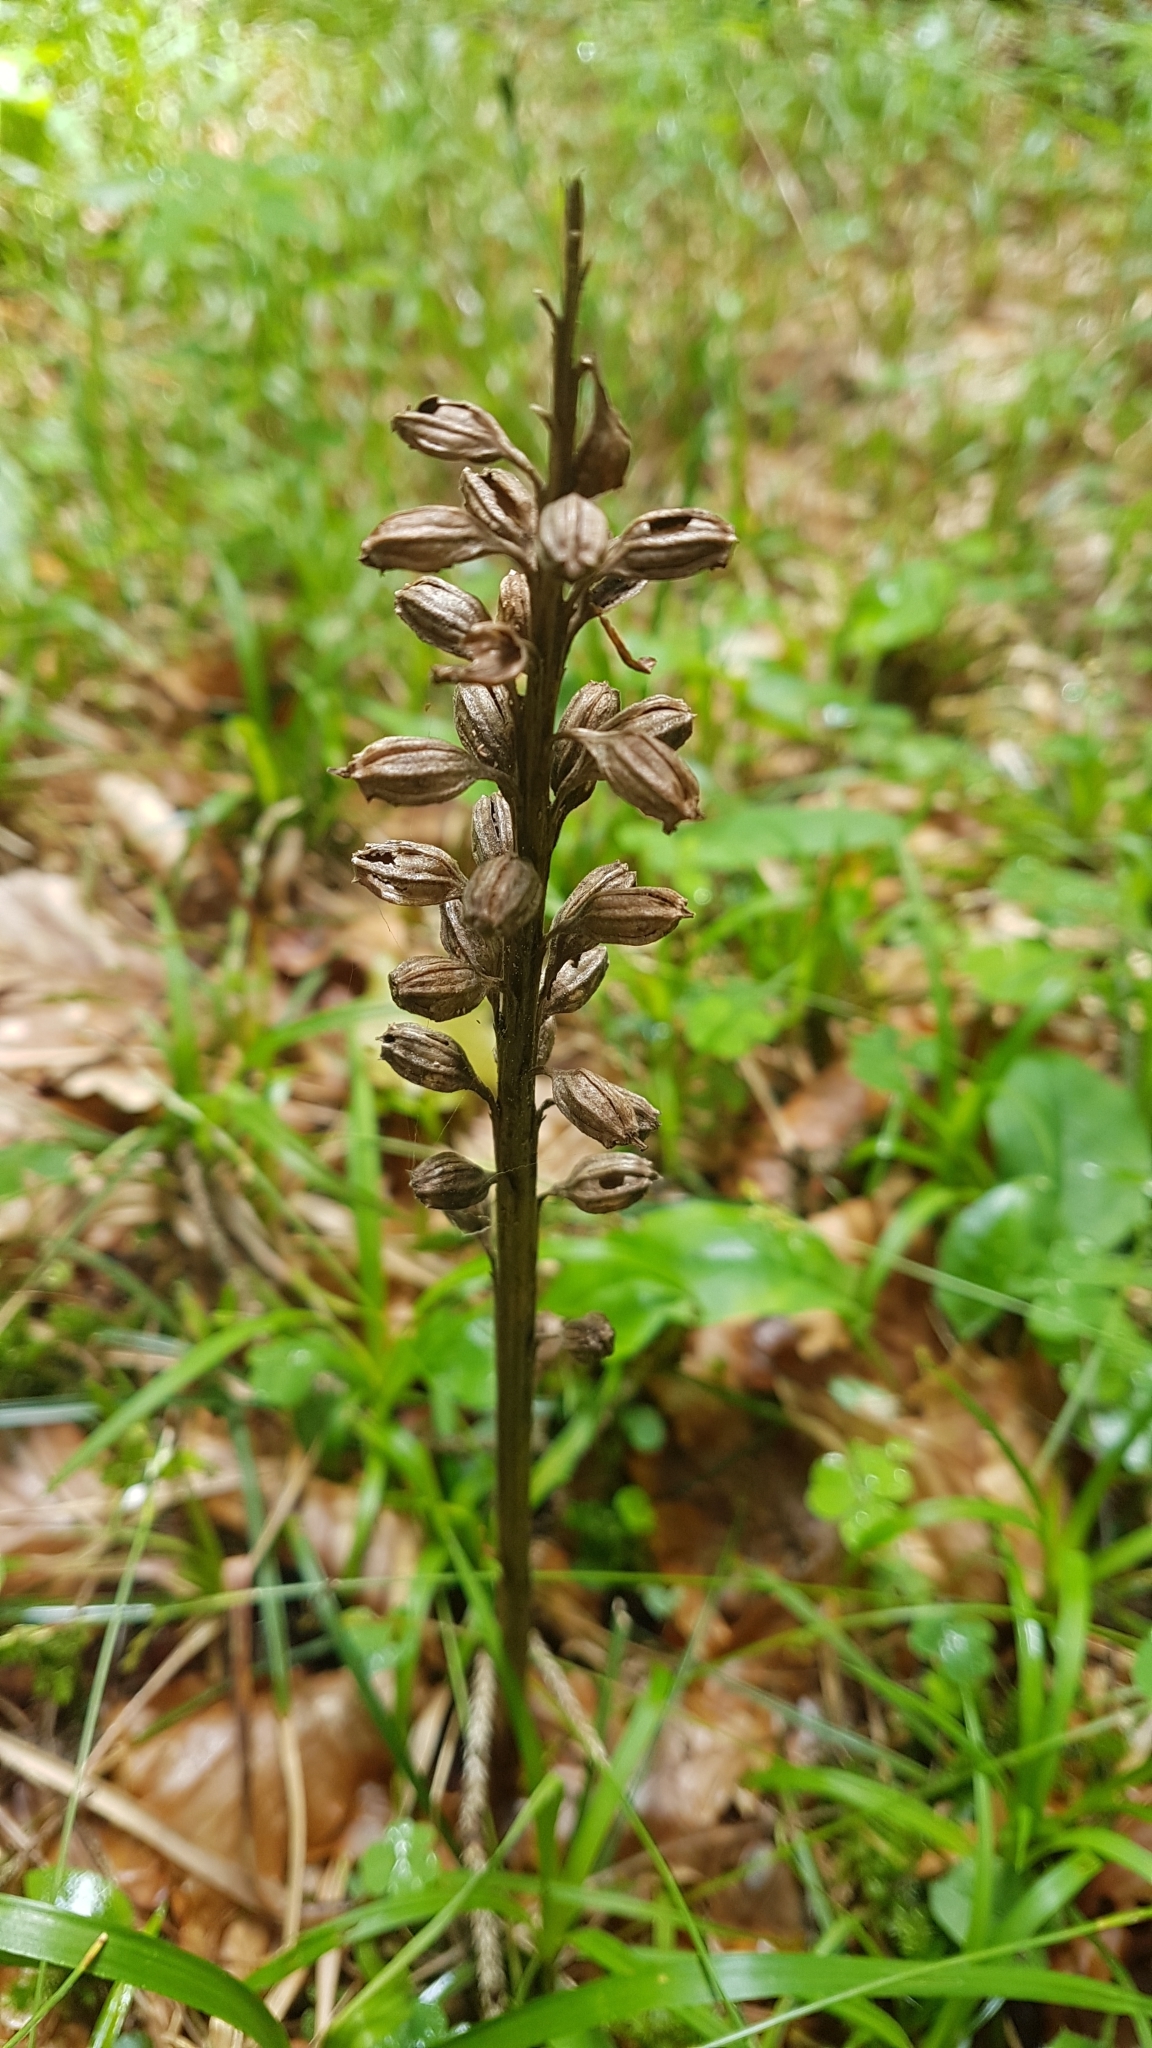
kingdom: Plantae
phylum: Tracheophyta
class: Liliopsida
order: Asparagales
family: Orchidaceae
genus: Neottia
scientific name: Neottia nidus-avis
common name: Bird's-nest orchid
